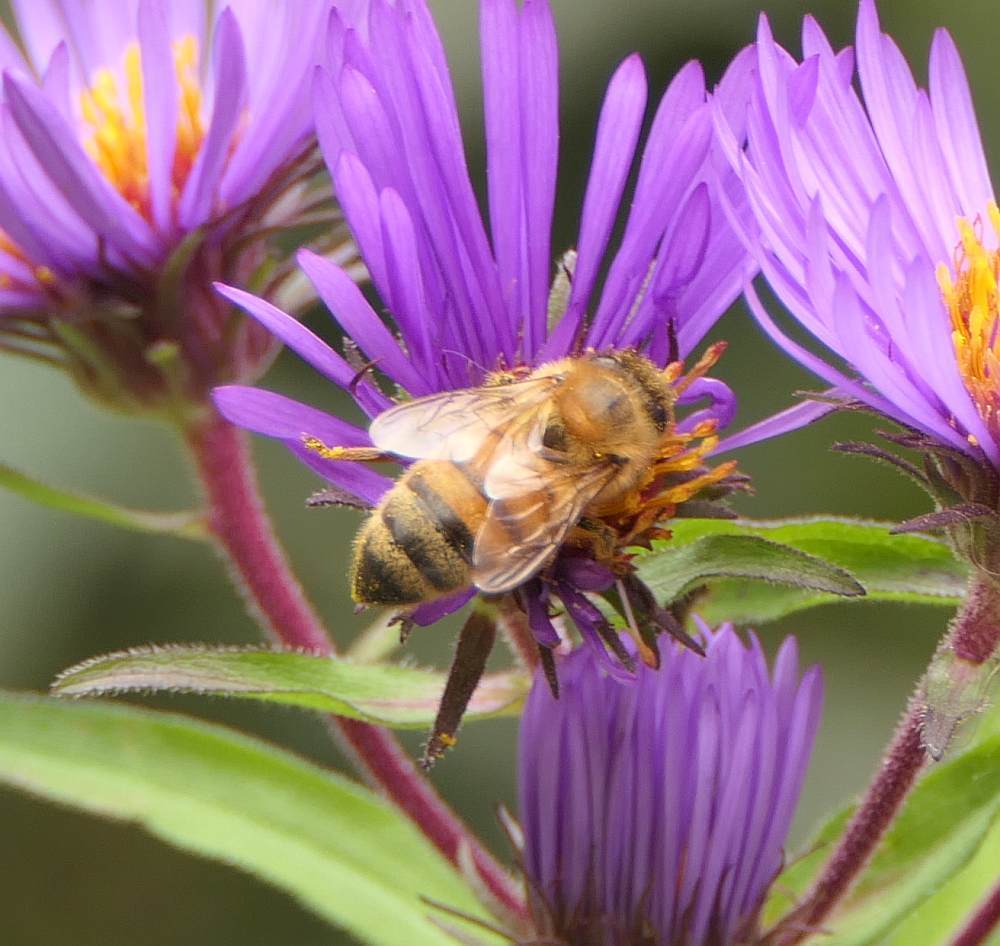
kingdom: Animalia
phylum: Arthropoda
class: Insecta
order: Hymenoptera
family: Apidae
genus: Apis
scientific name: Apis mellifera
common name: Honey bee
